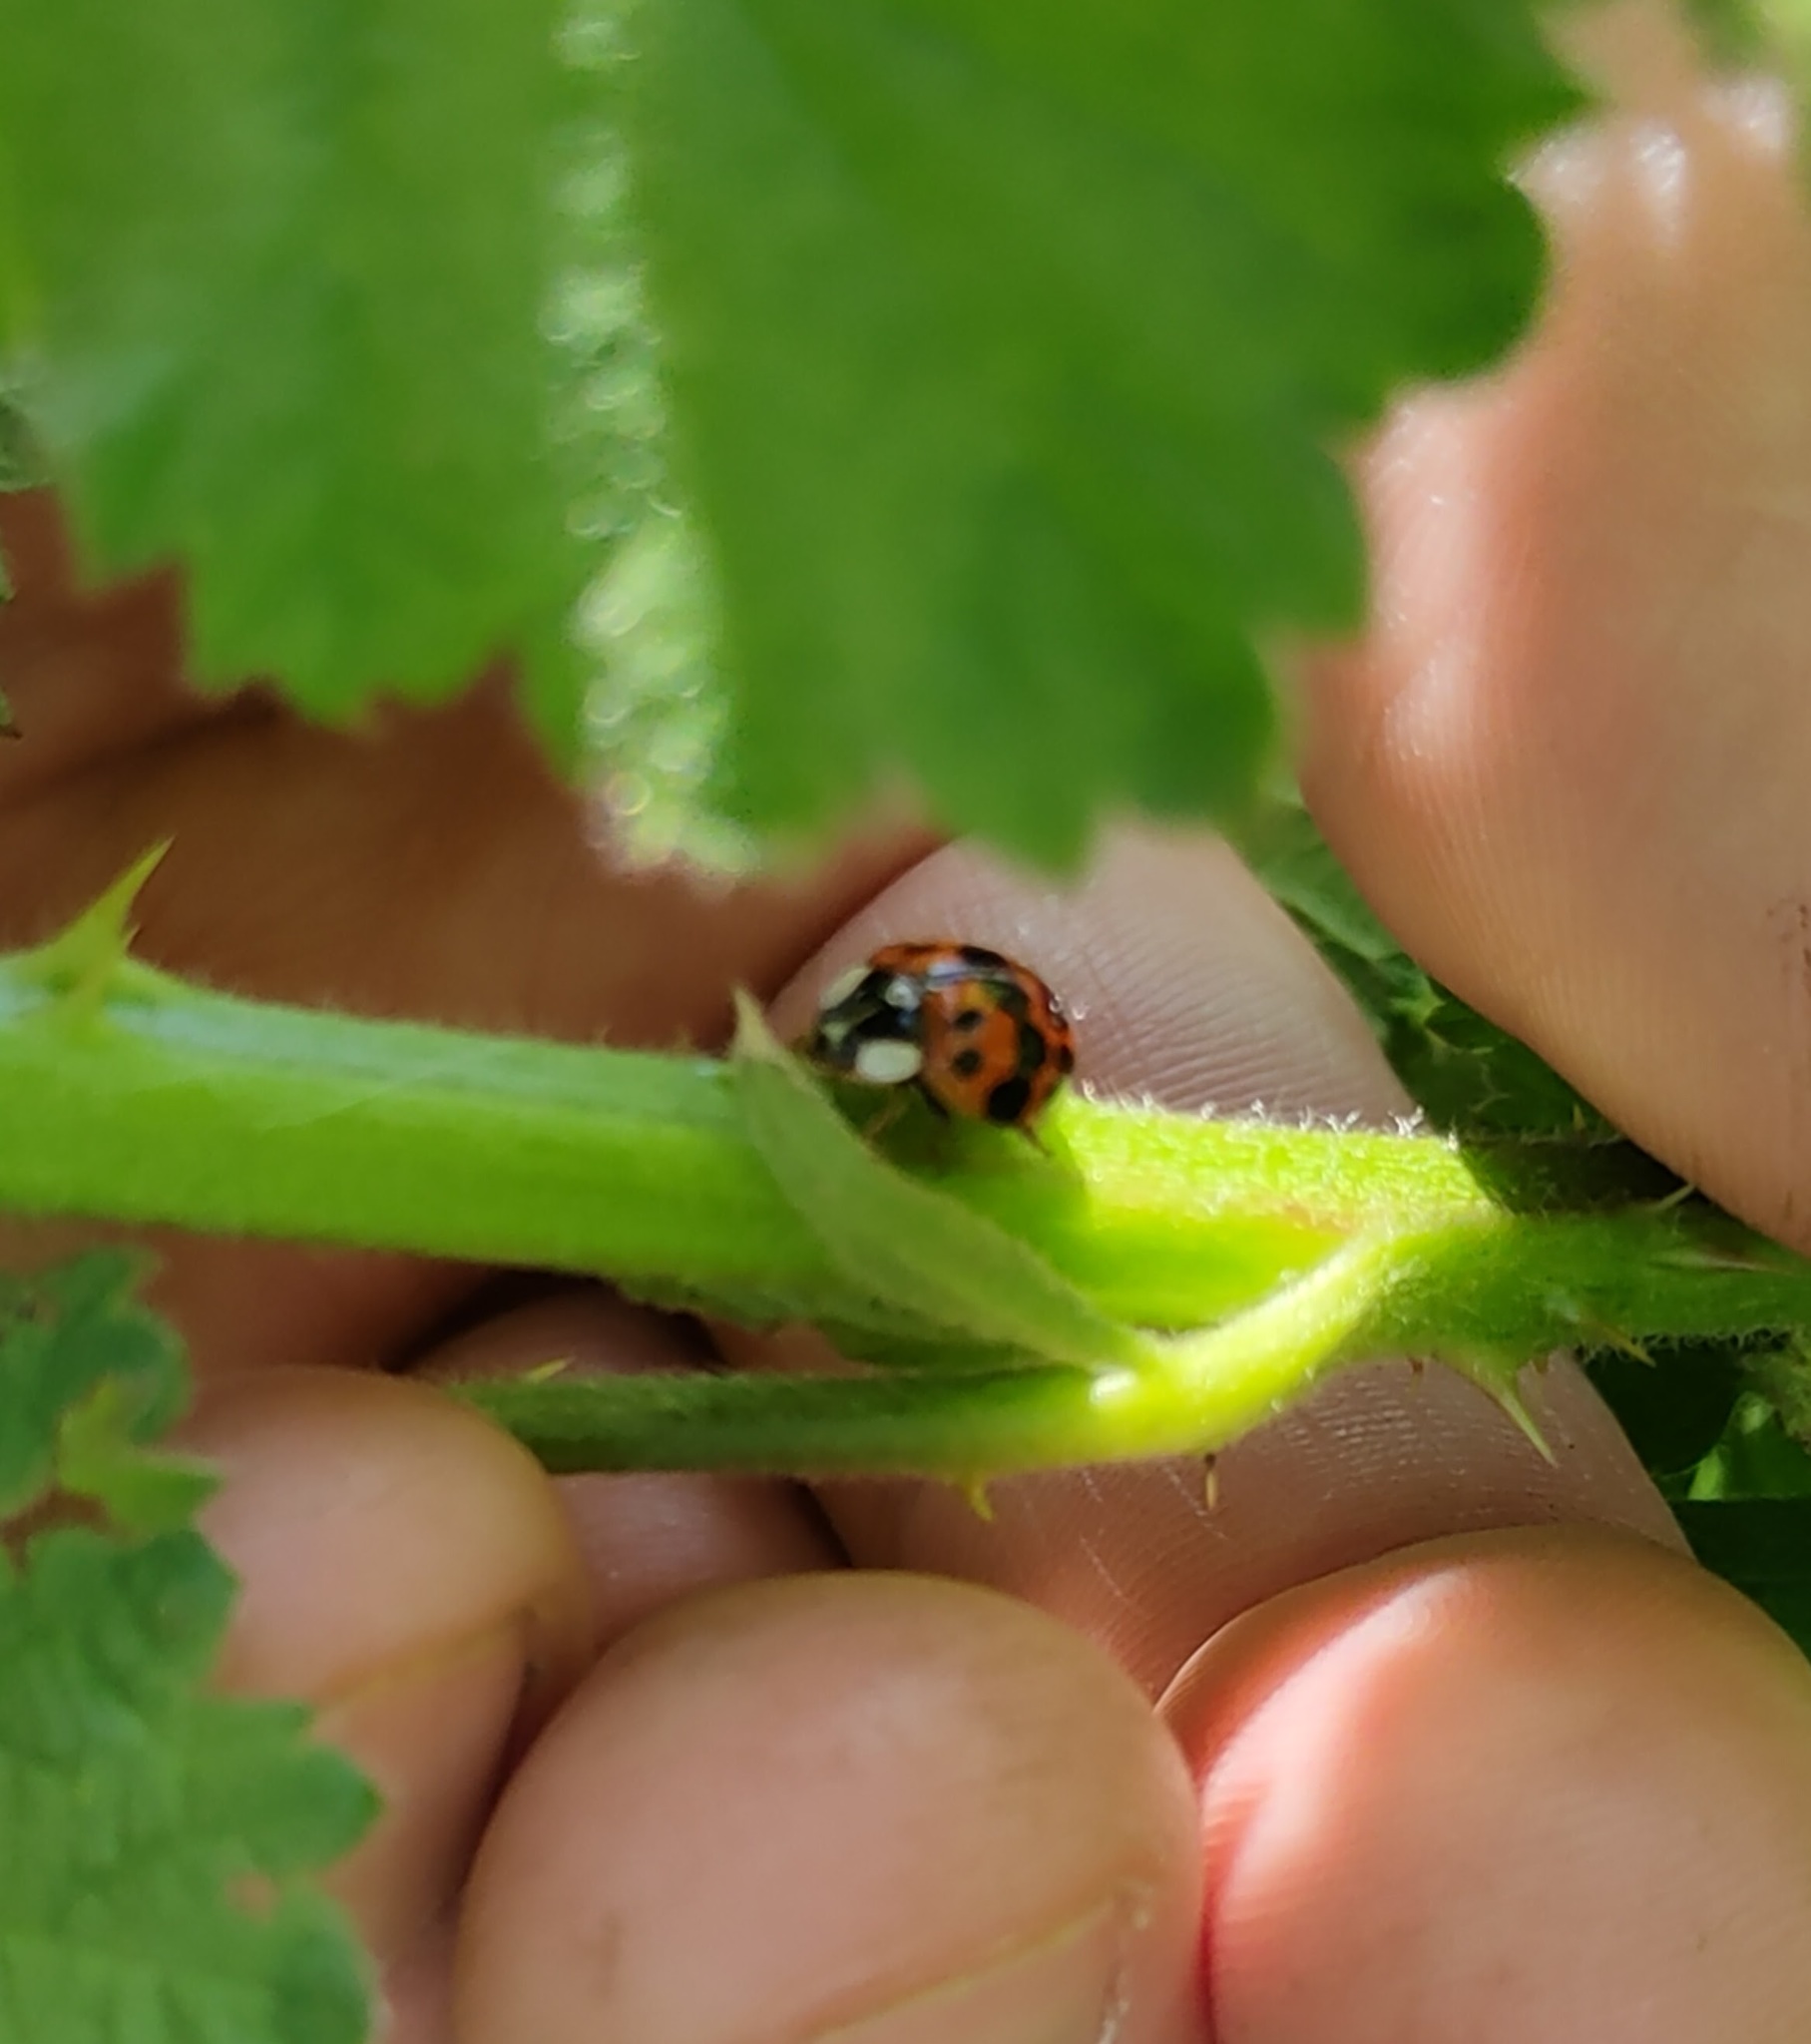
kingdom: Animalia
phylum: Arthropoda
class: Insecta
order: Coleoptera
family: Coccinellidae
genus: Harmonia
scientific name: Harmonia axyridis
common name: Harlequin ladybird
